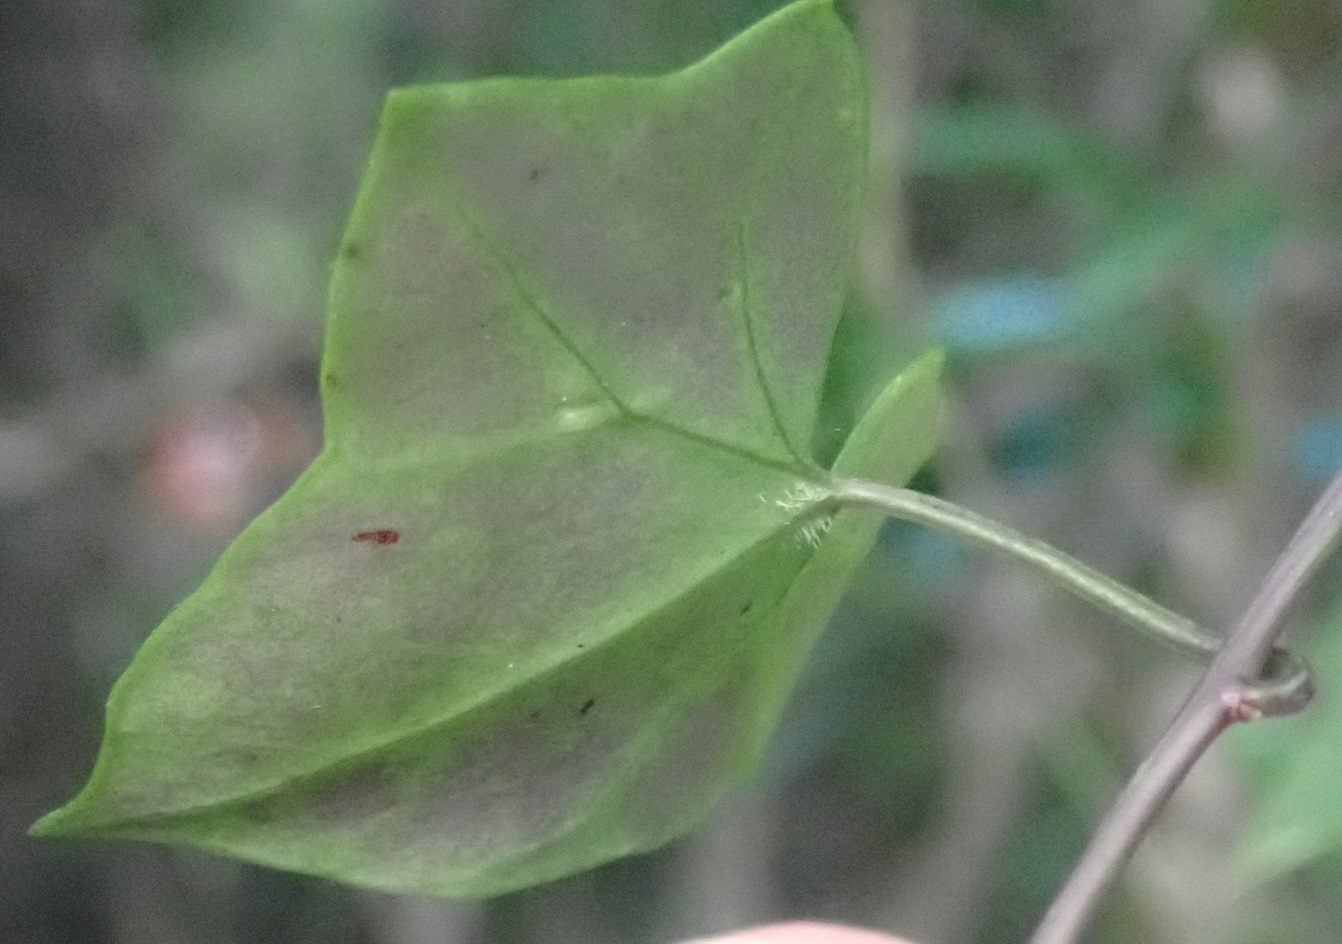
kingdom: Plantae
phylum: Tracheophyta
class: Magnoliopsida
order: Asterales
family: Asteraceae
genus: Delairea
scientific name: Delairea odorata
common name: Cape-ivy
